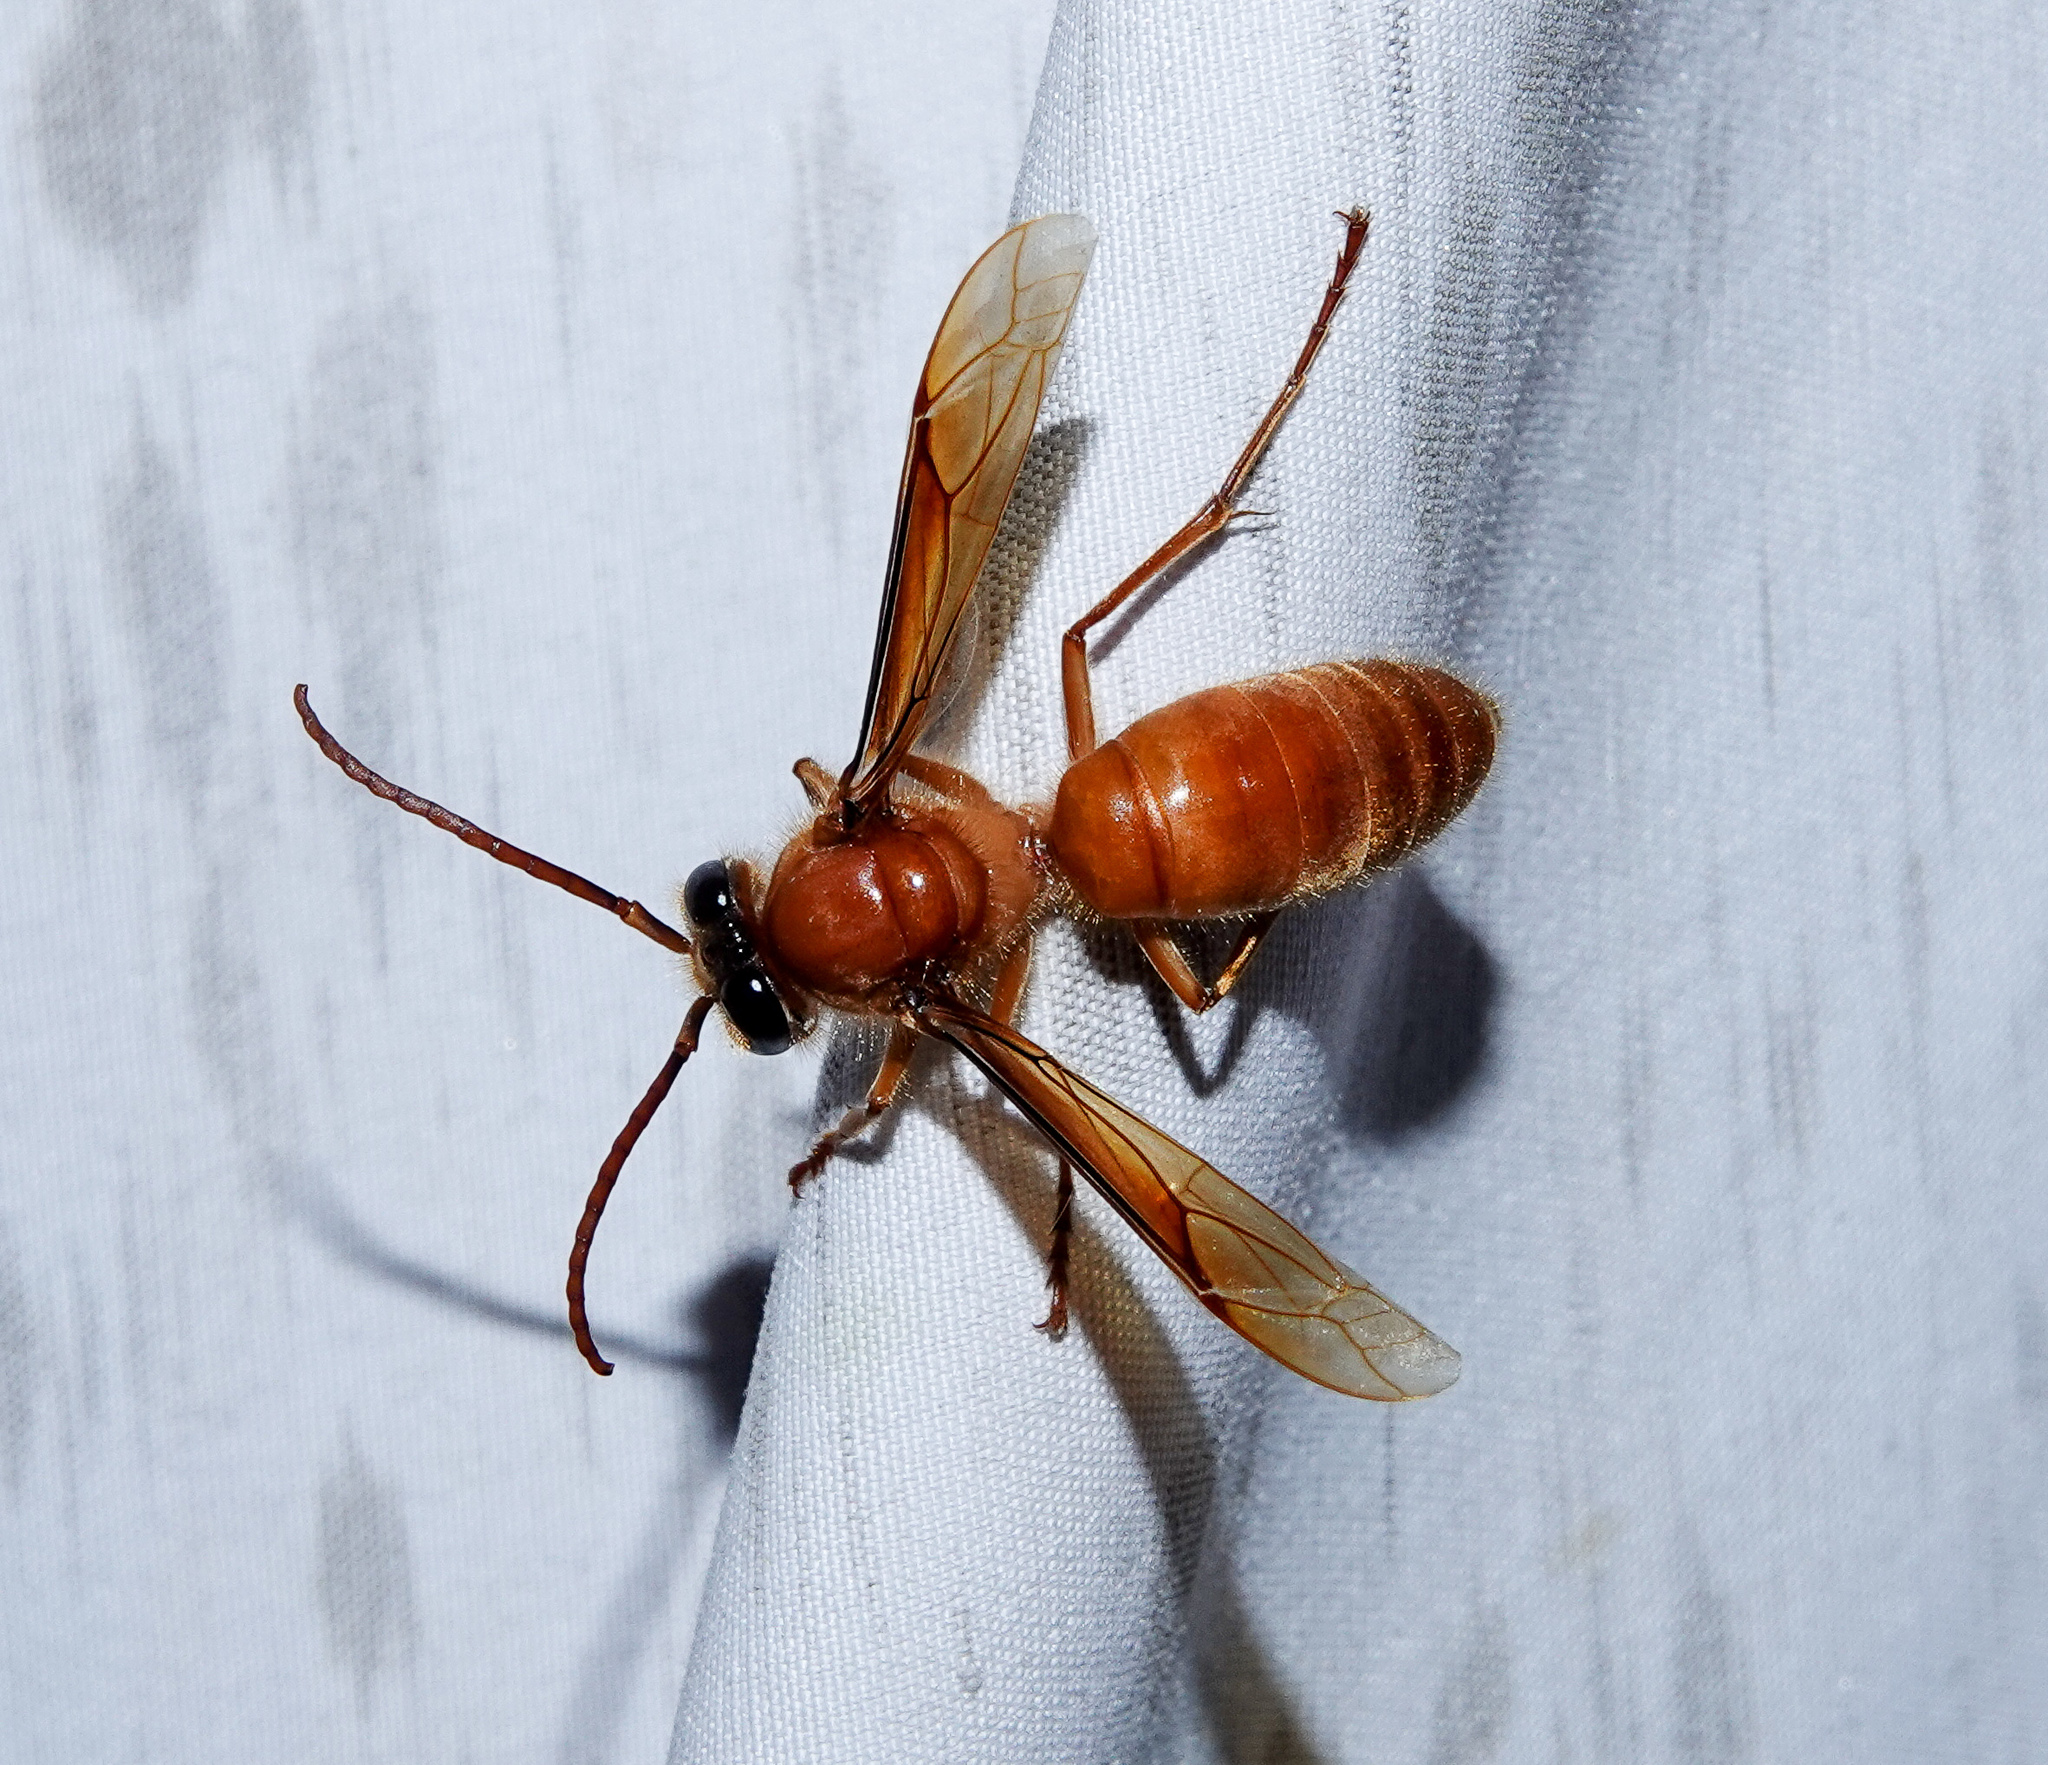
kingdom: Animalia
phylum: Arthropoda
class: Insecta
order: Hymenoptera
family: Vespidae
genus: Provespa
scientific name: Provespa barthelemyi
